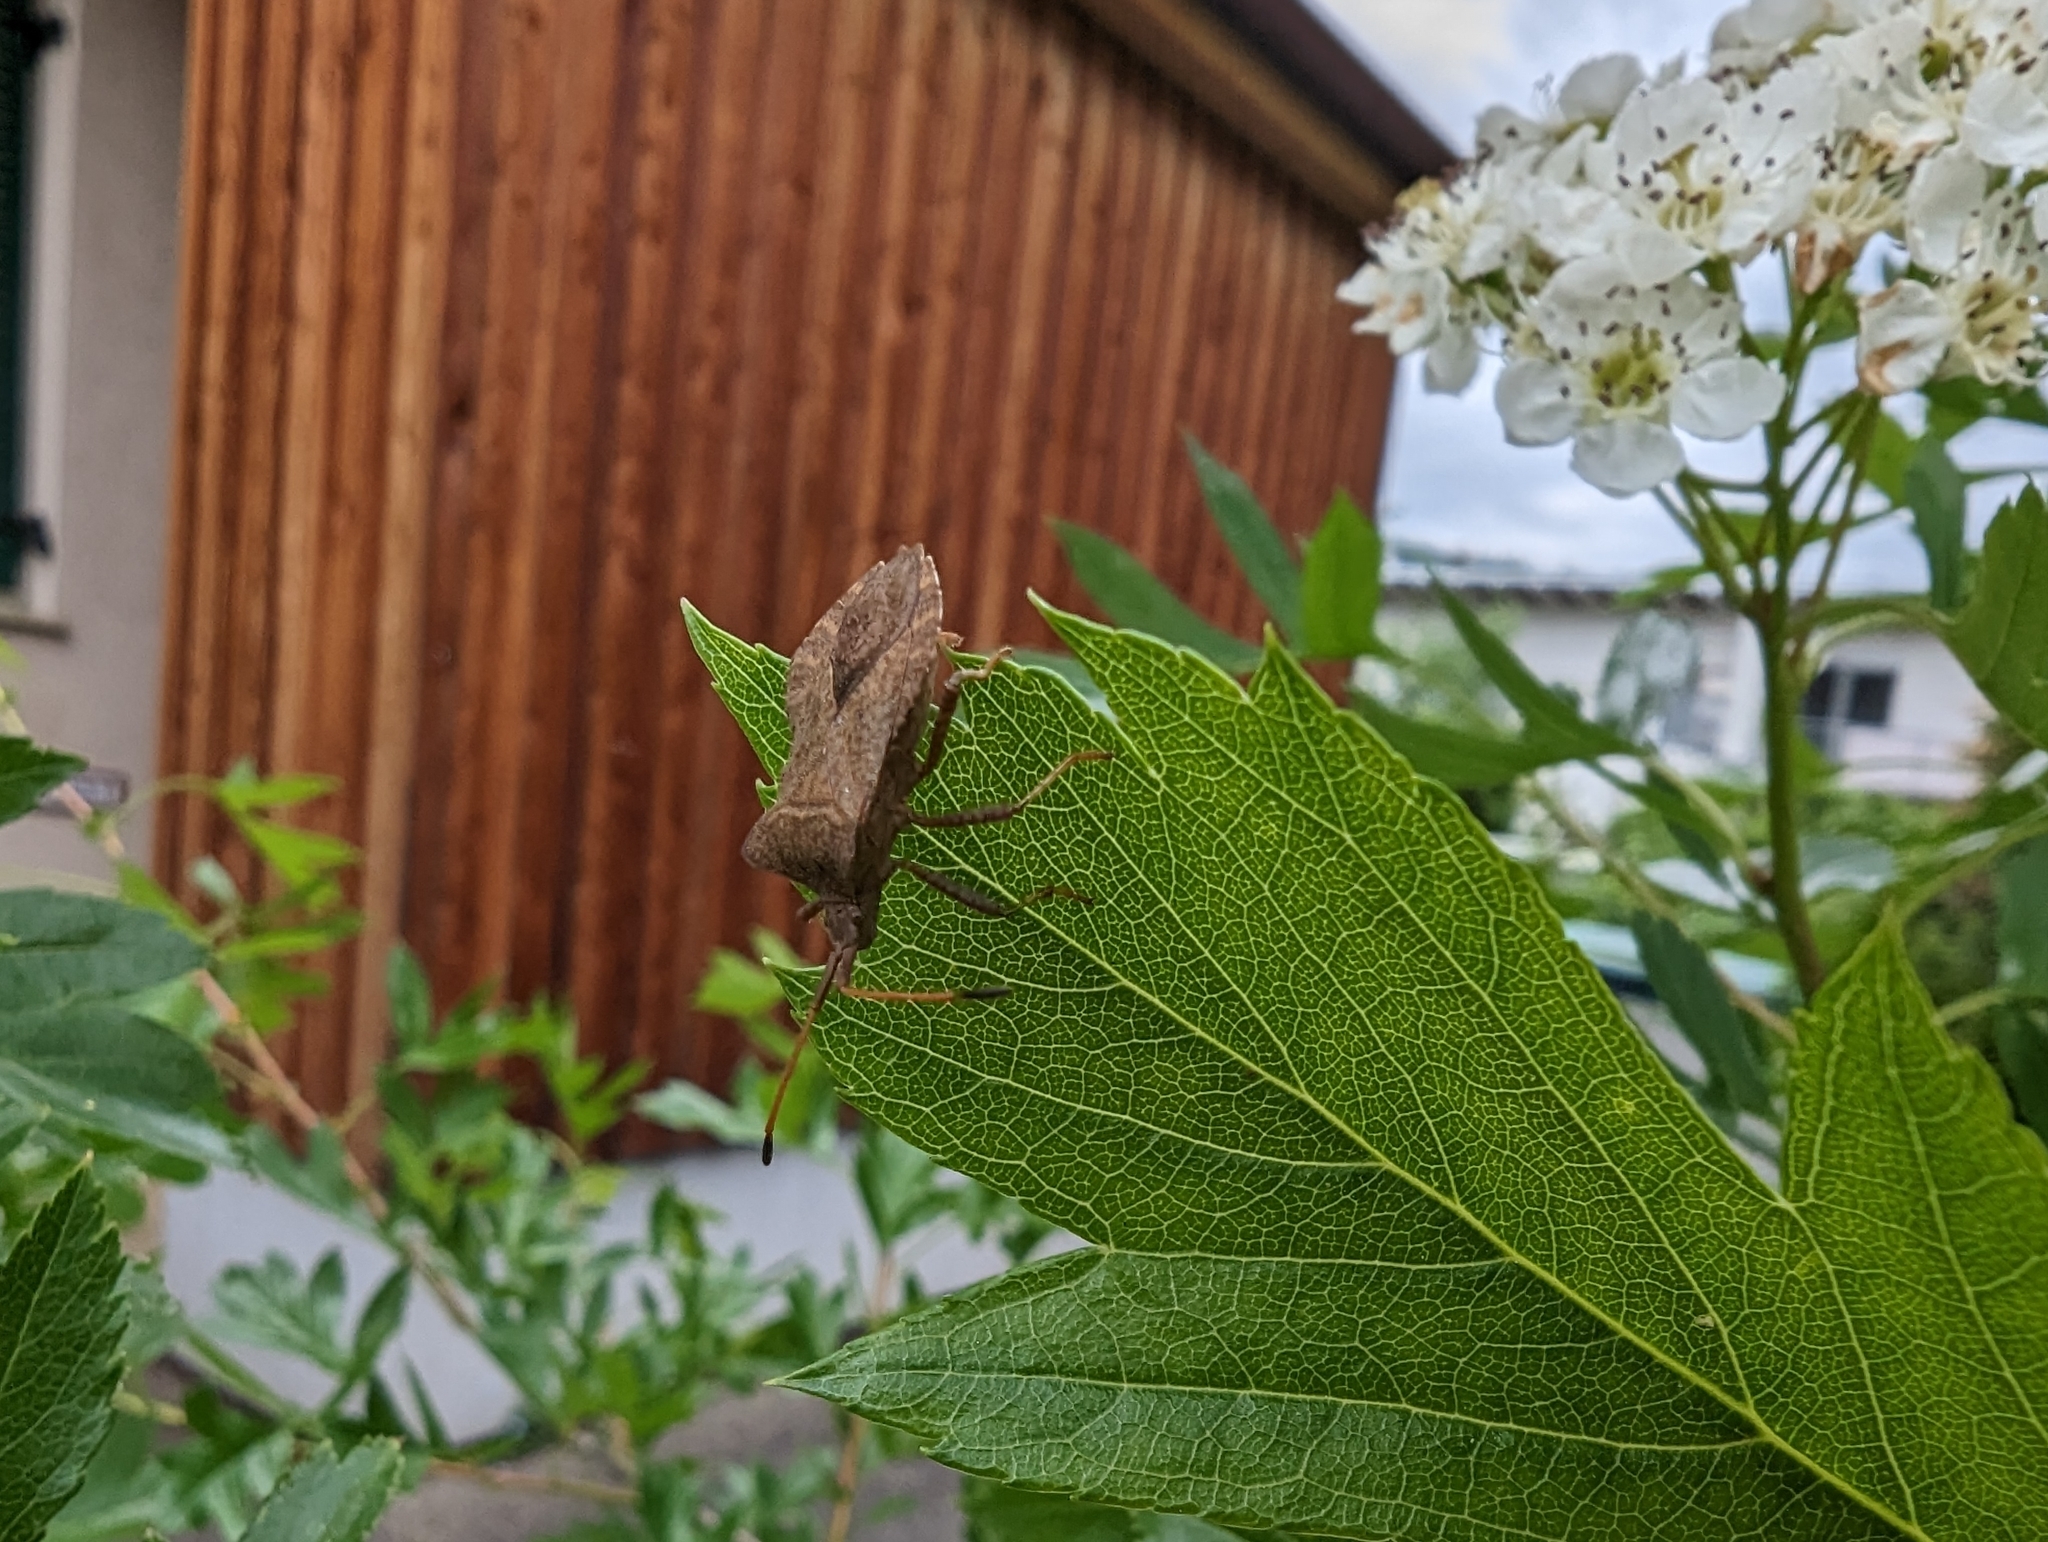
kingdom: Animalia
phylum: Arthropoda
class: Insecta
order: Hemiptera
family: Coreidae
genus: Coreus
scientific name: Coreus marginatus
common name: Dock bug
